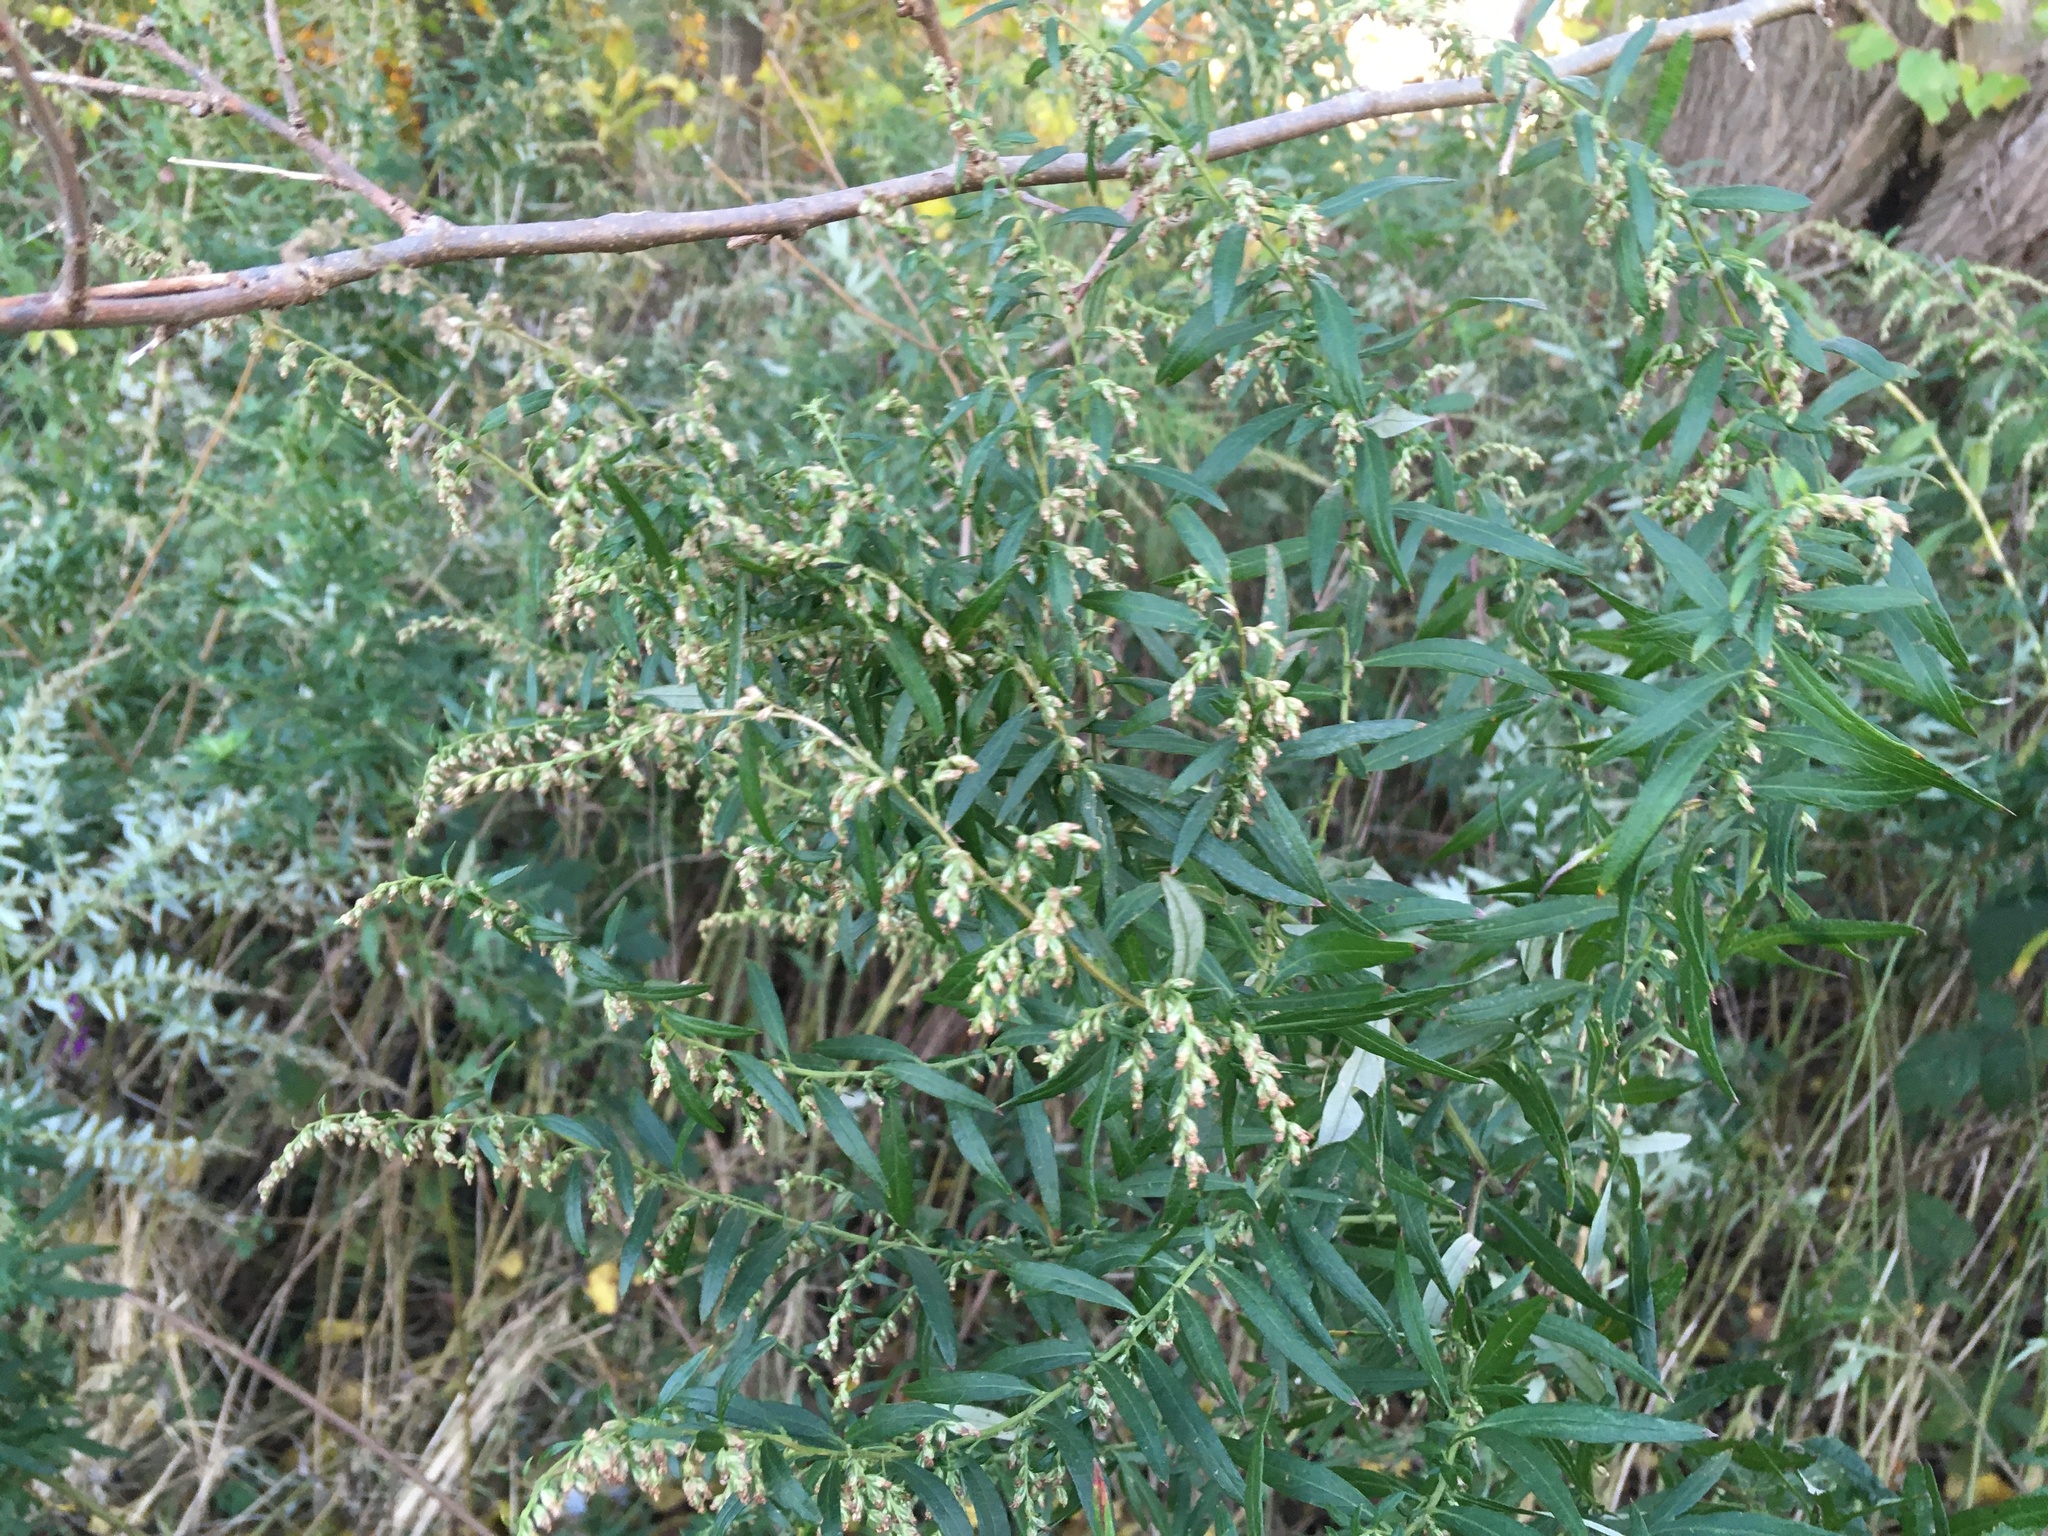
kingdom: Plantae
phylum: Tracheophyta
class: Magnoliopsida
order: Asterales
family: Asteraceae
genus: Artemisia
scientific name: Artemisia vulgaris
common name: Mugwort
